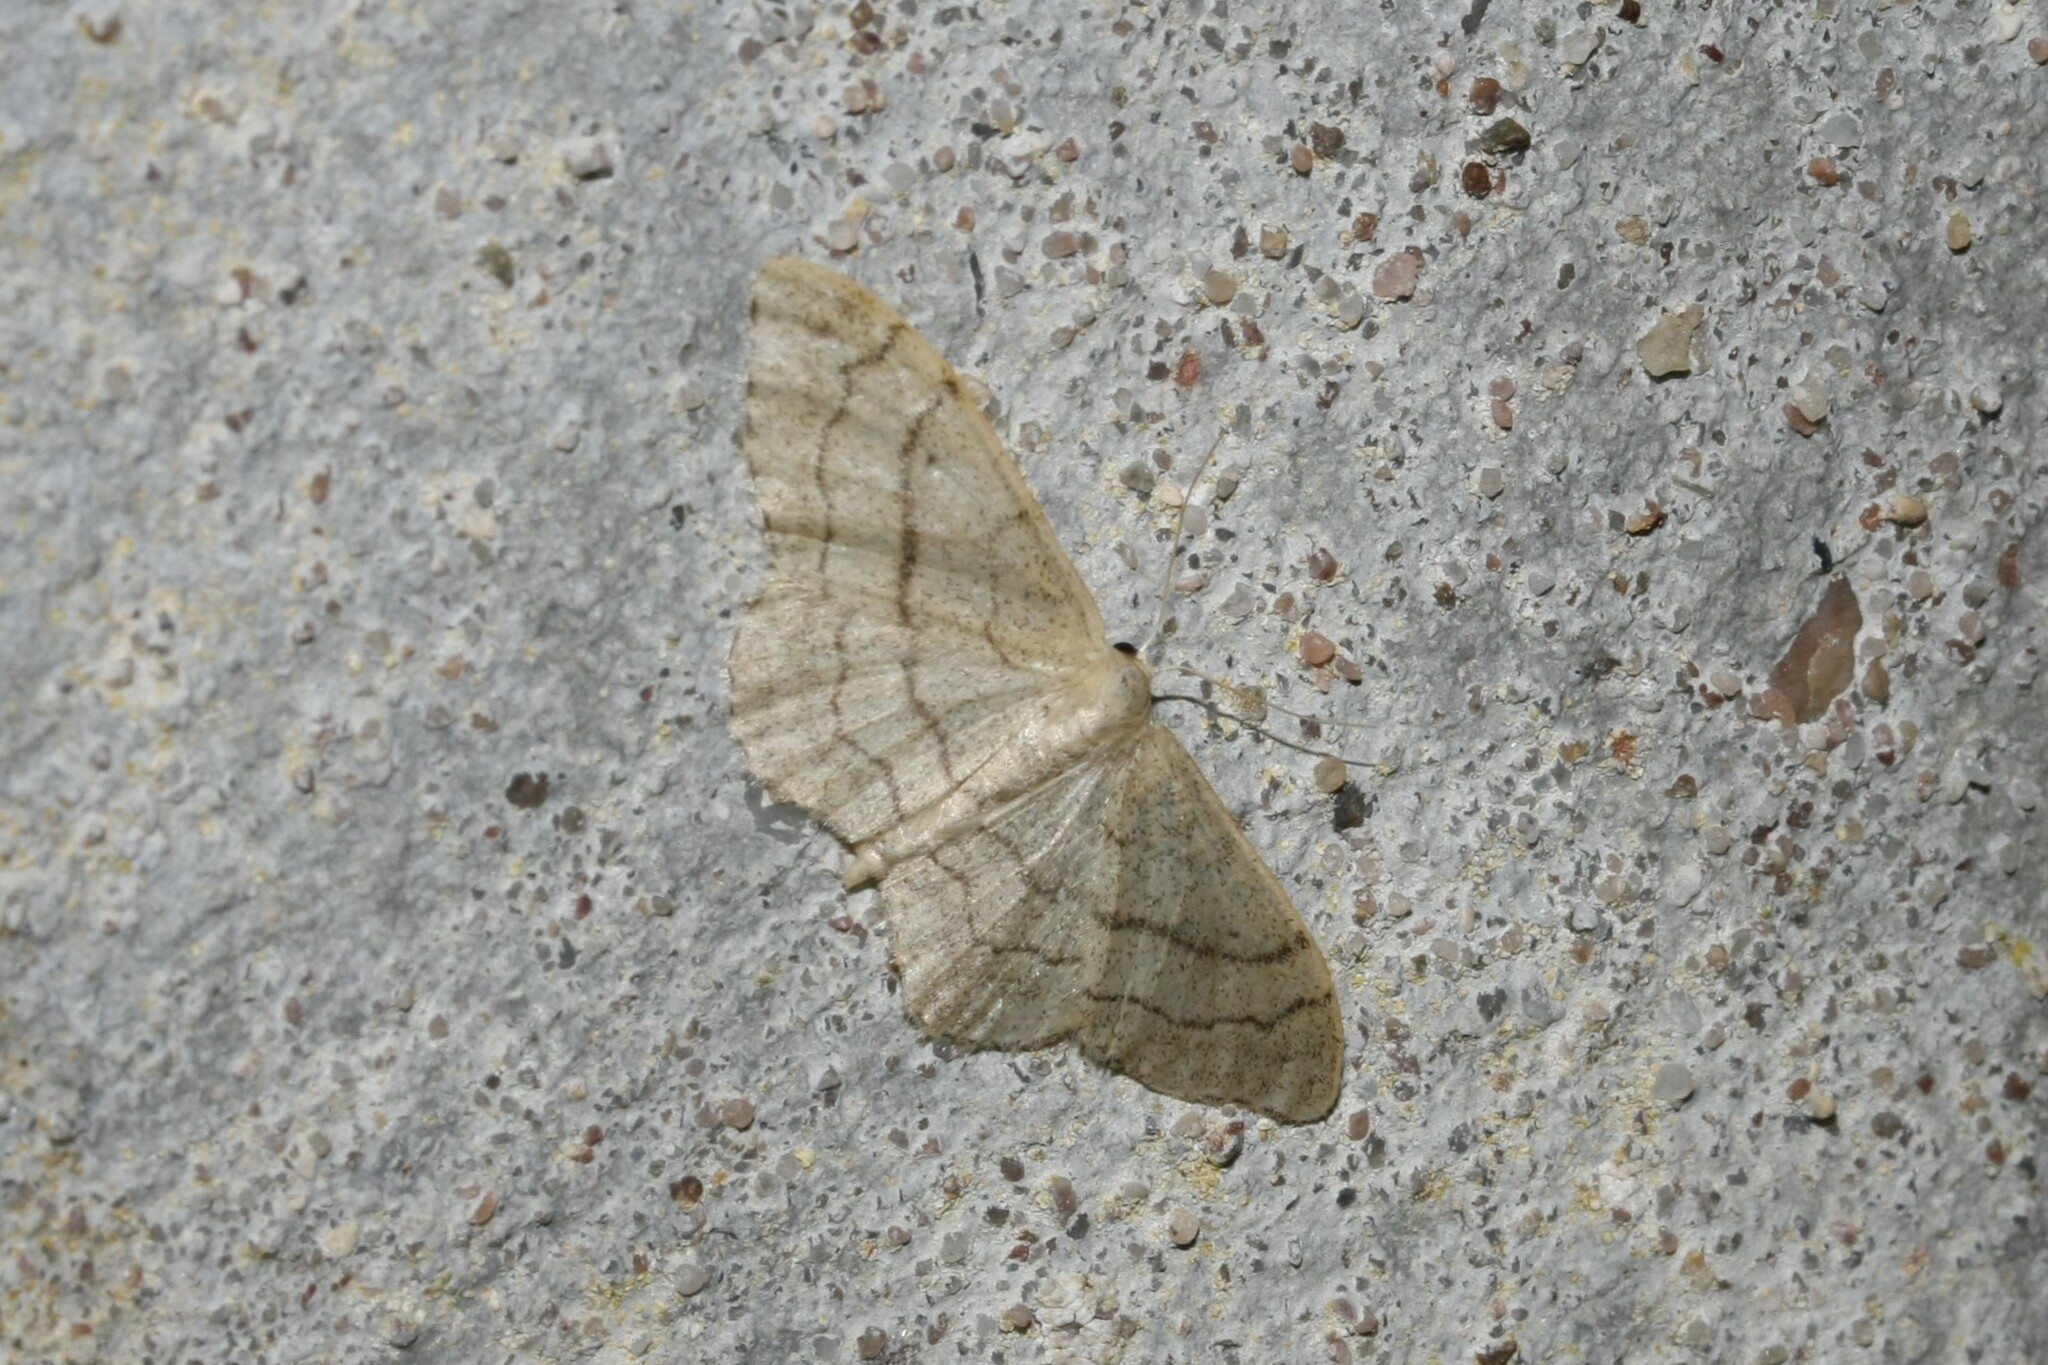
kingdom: Animalia
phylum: Arthropoda
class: Insecta
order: Lepidoptera
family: Geometridae
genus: Idaea
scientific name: Idaea aversata
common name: Riband wave
